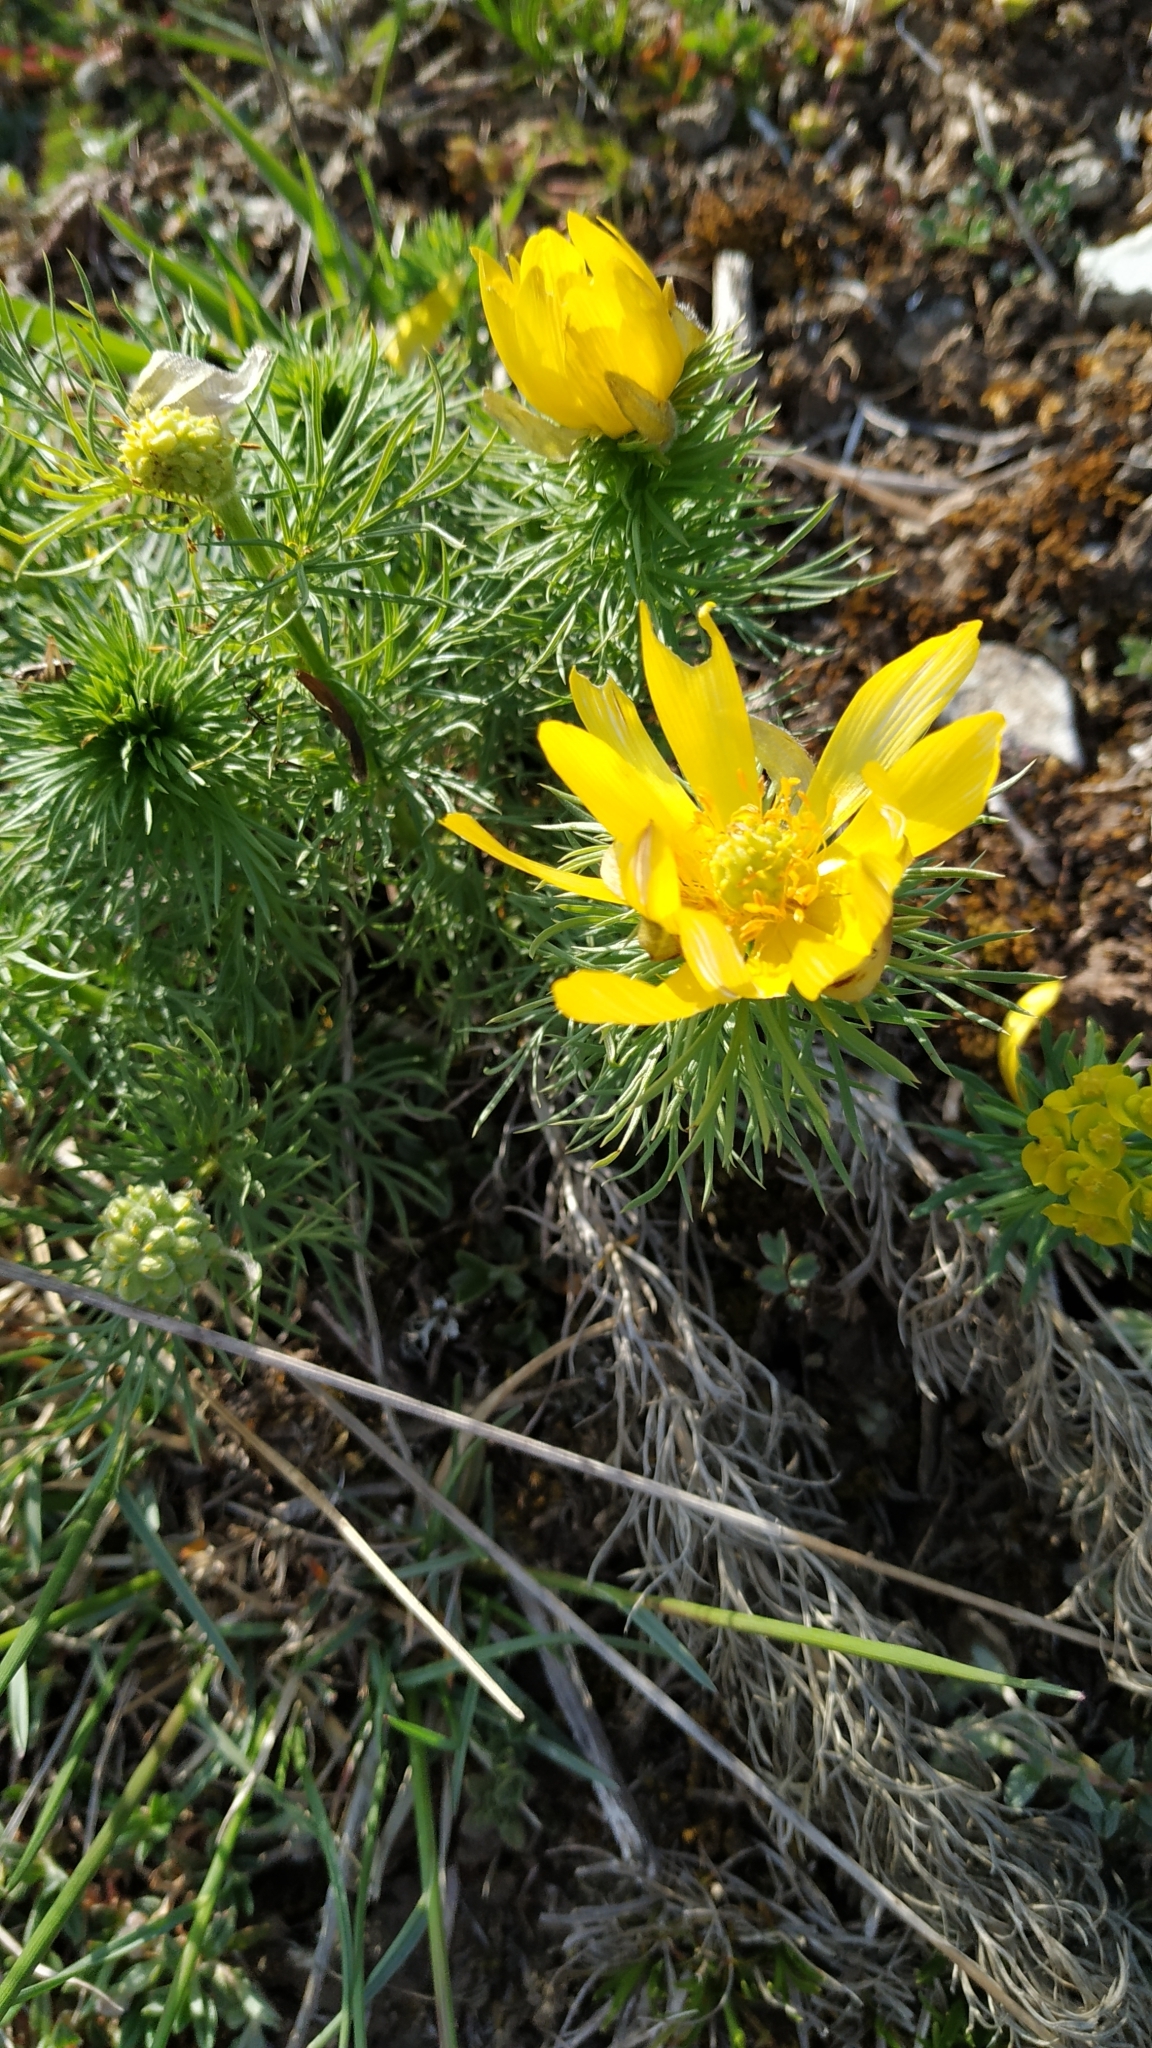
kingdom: Plantae
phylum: Tracheophyta
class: Magnoliopsida
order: Ranunculales
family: Ranunculaceae
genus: Adonis
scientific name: Adonis vernalis
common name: Yellow pheasants-eye
